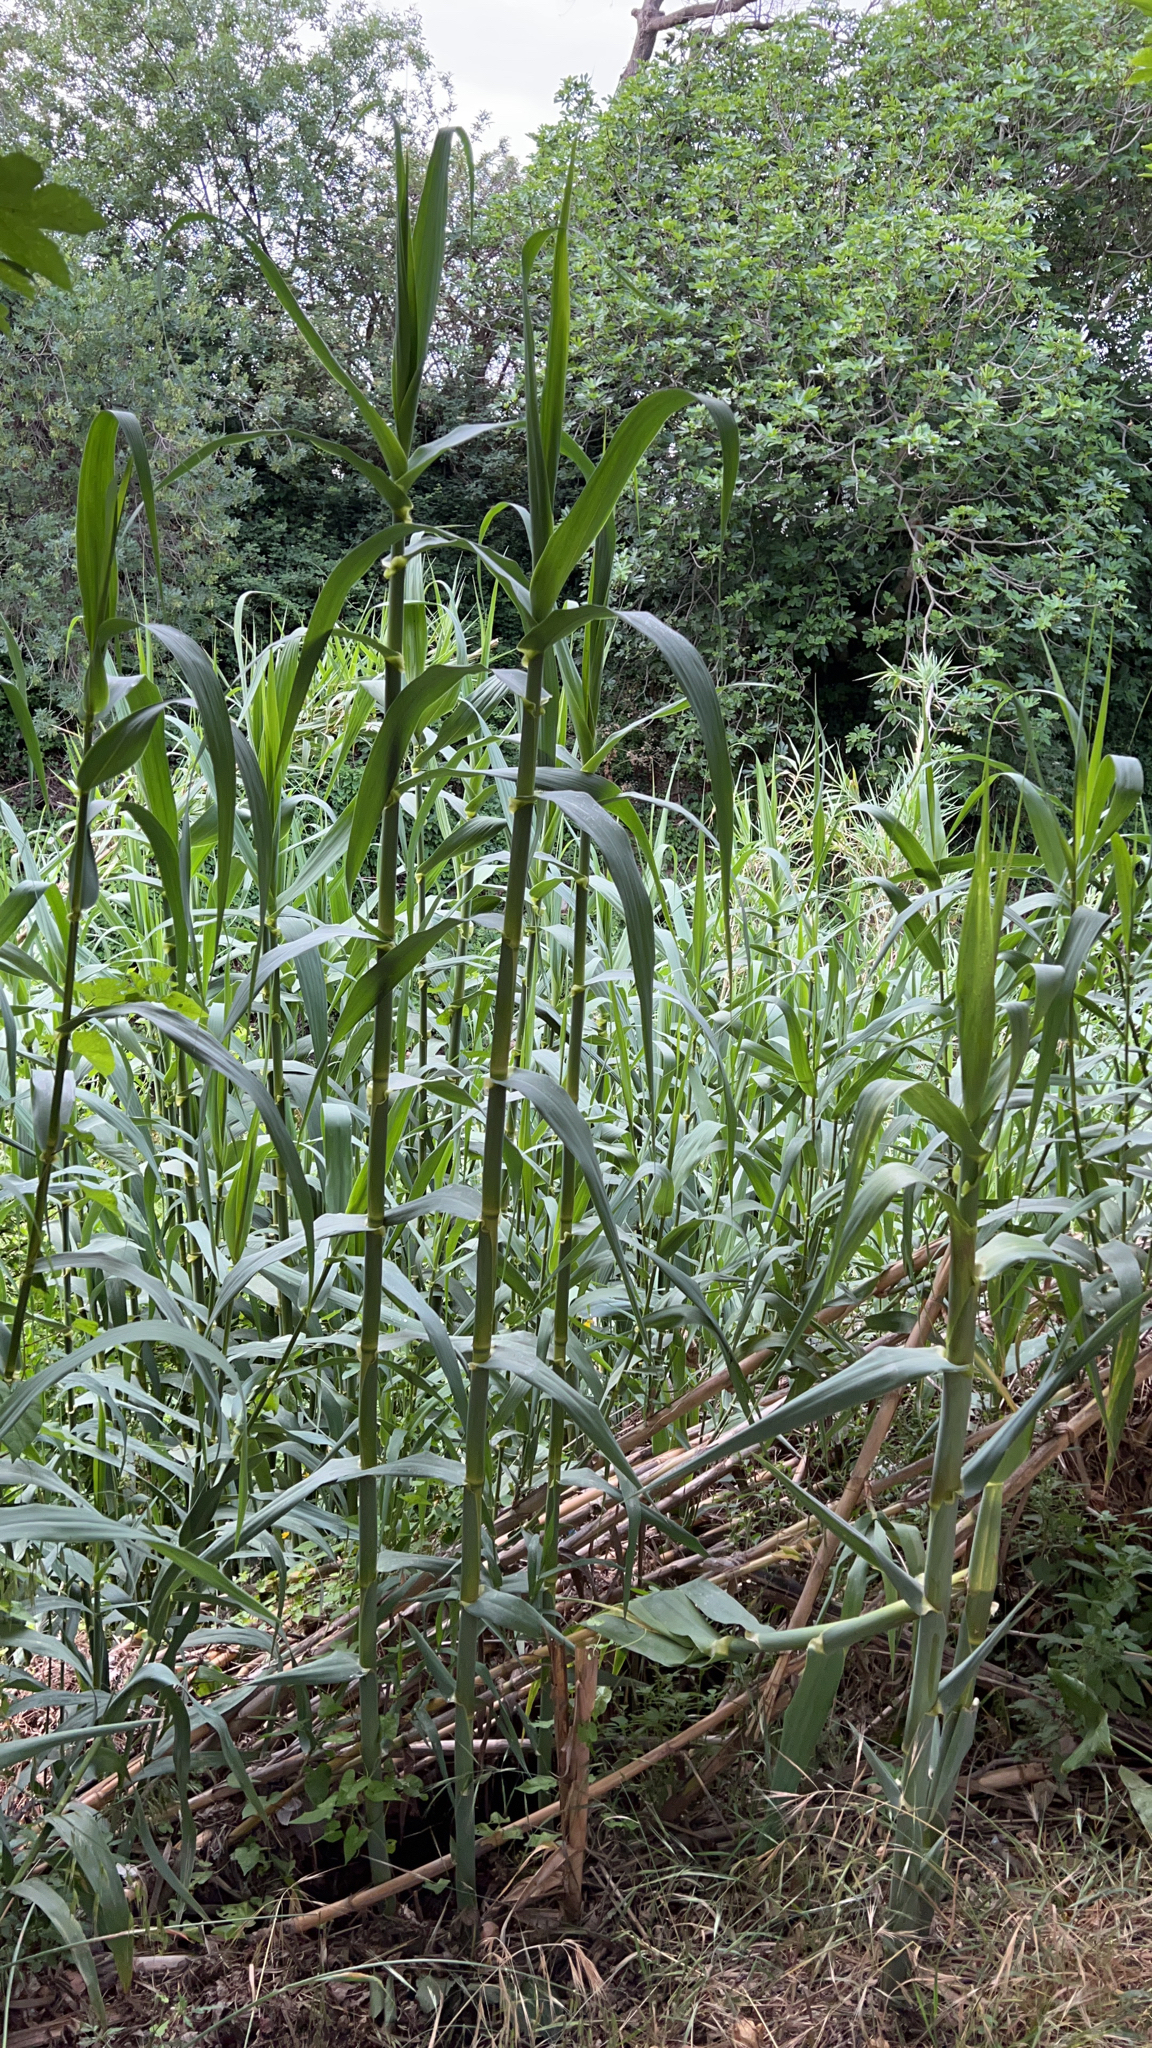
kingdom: Plantae
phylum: Tracheophyta
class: Liliopsida
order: Poales
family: Poaceae
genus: Arundo
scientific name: Arundo donax
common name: Giant reed
